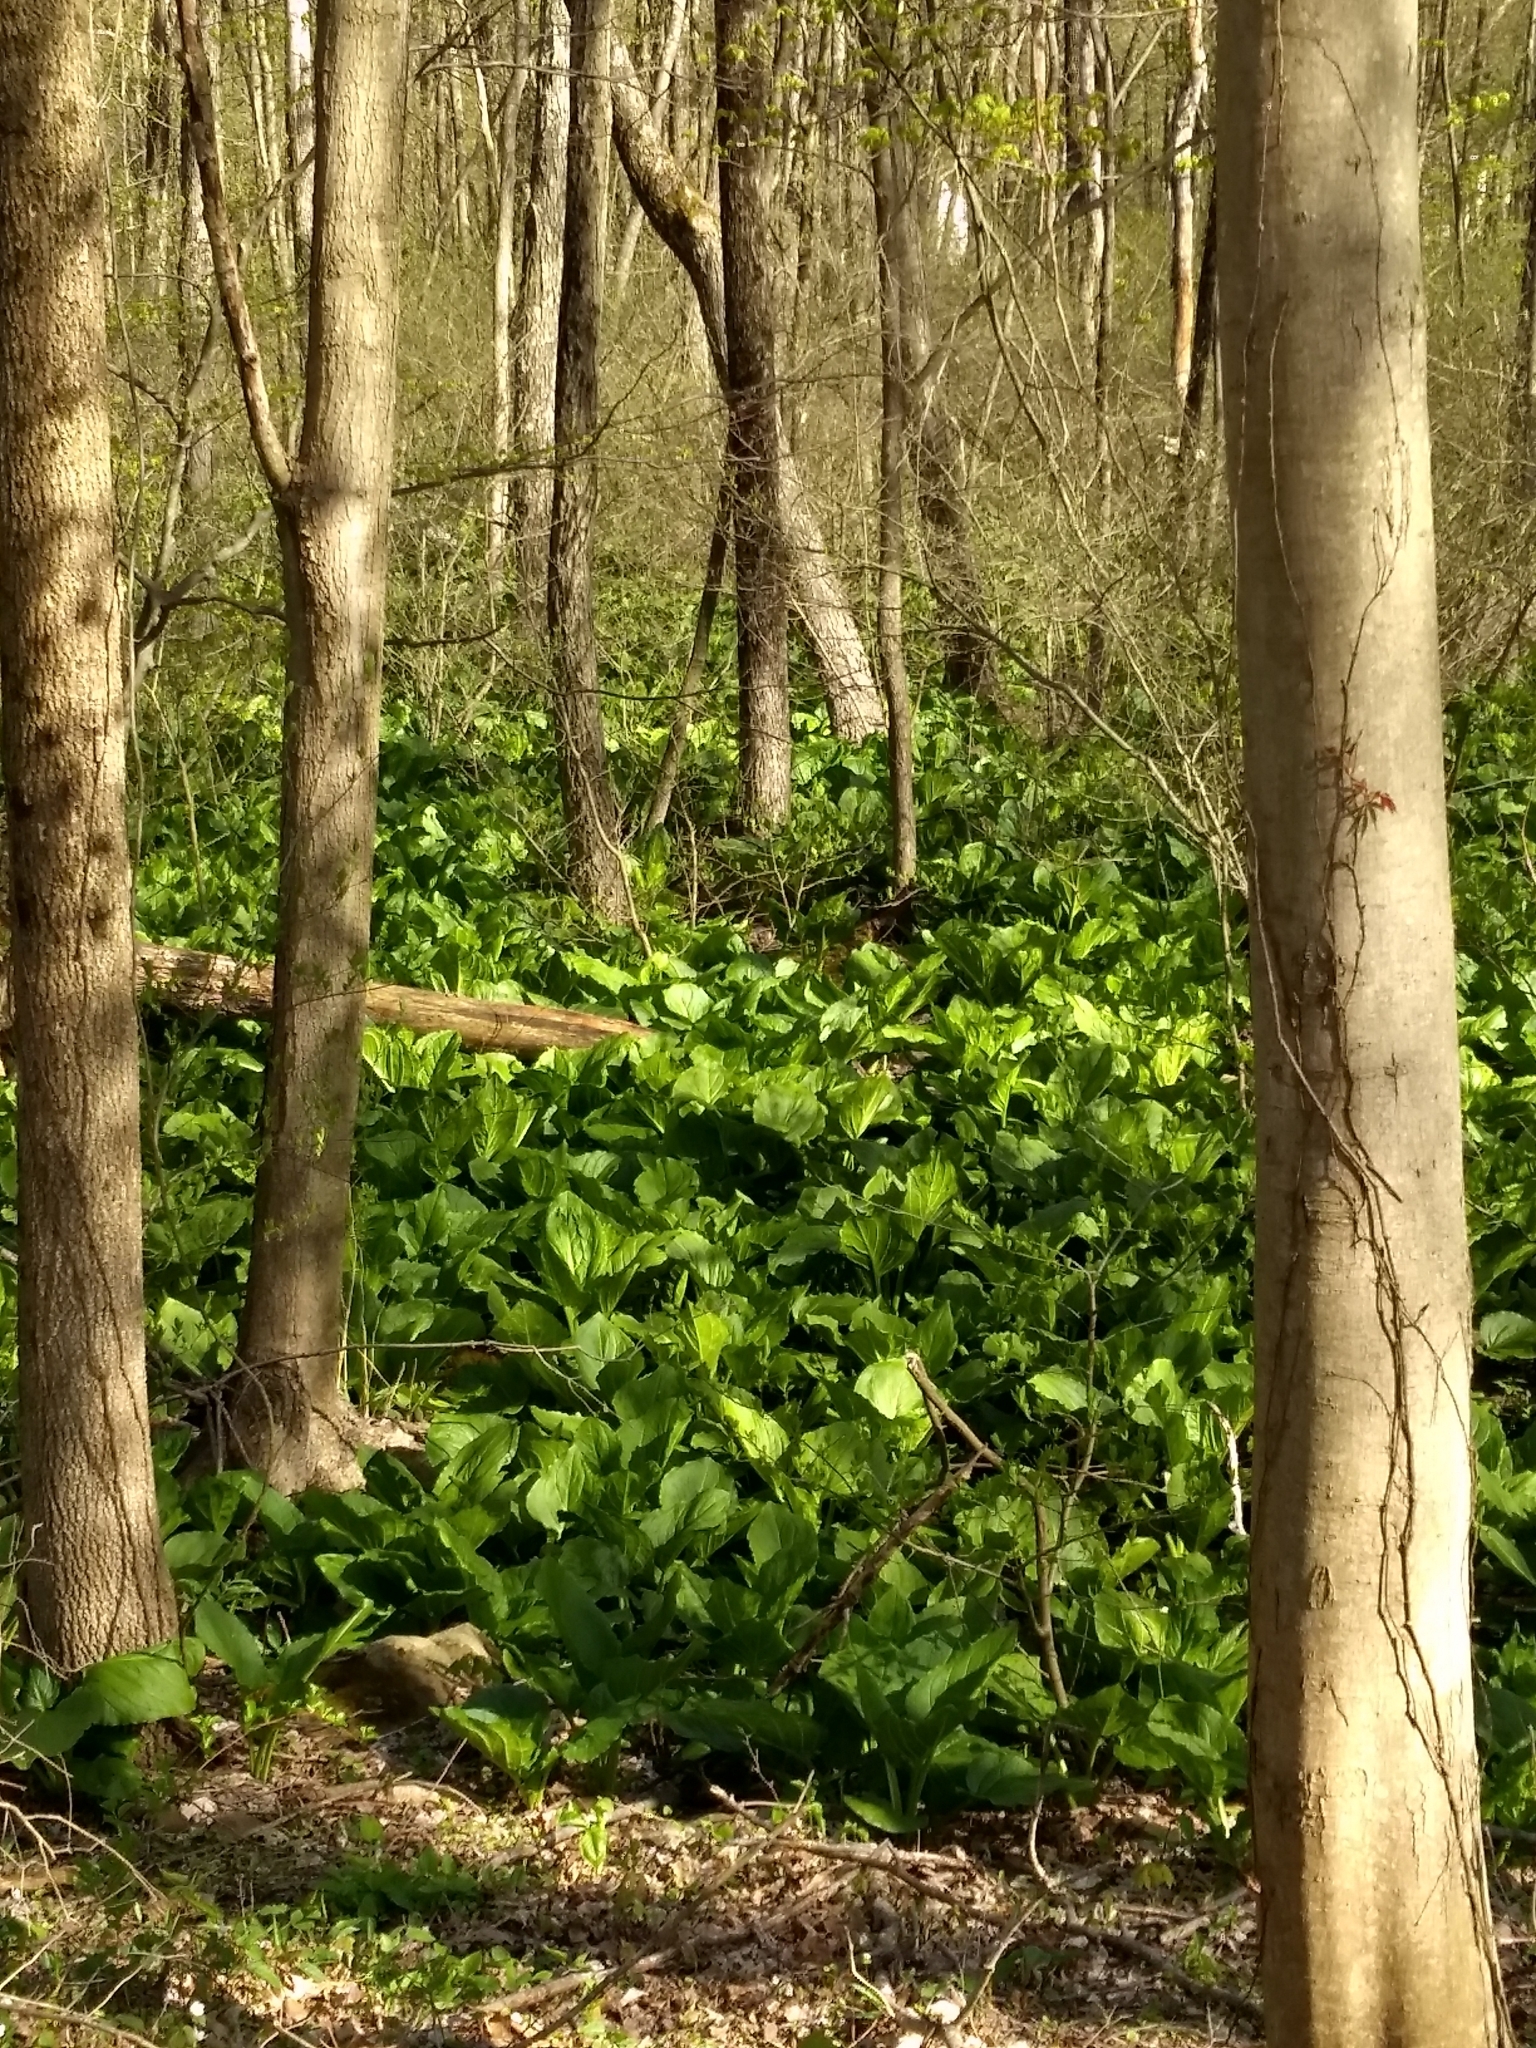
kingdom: Plantae
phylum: Tracheophyta
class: Liliopsida
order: Alismatales
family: Araceae
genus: Symplocarpus
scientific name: Symplocarpus foetidus
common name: Eastern skunk cabbage
